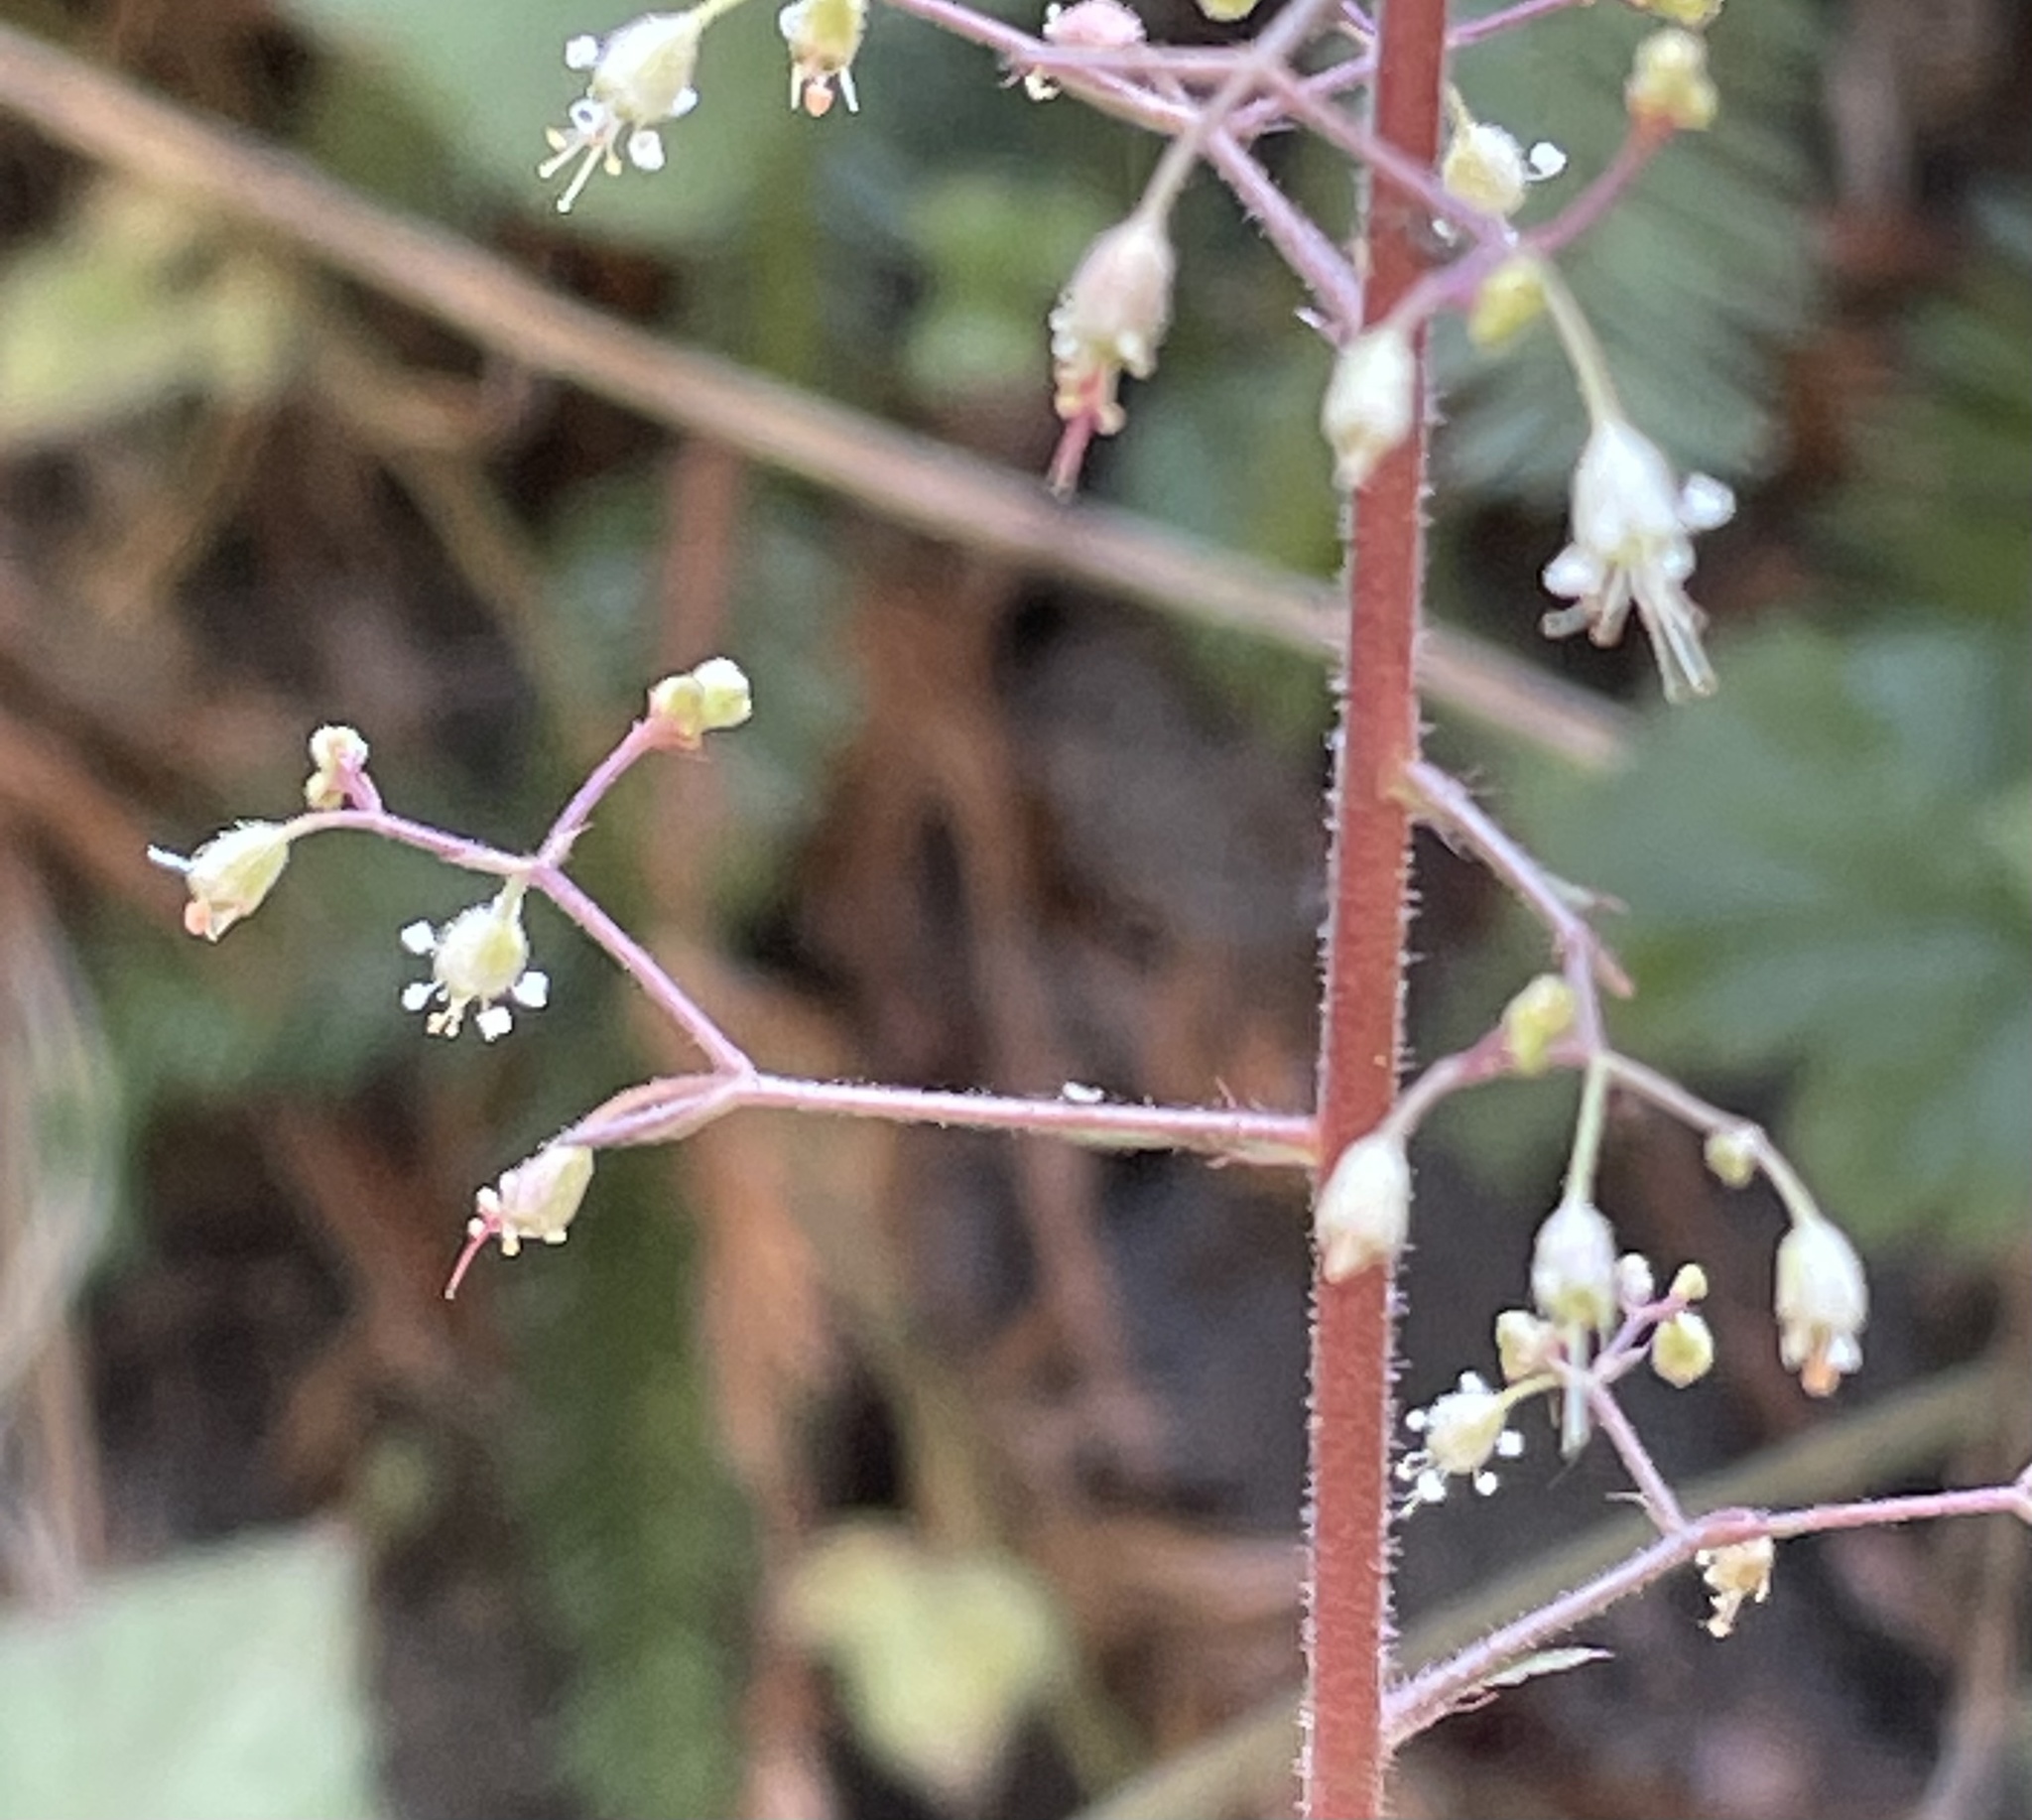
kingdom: Plantae
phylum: Tracheophyta
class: Magnoliopsida
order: Saxifragales
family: Saxifragaceae
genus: Heuchera
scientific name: Heuchera micrantha
